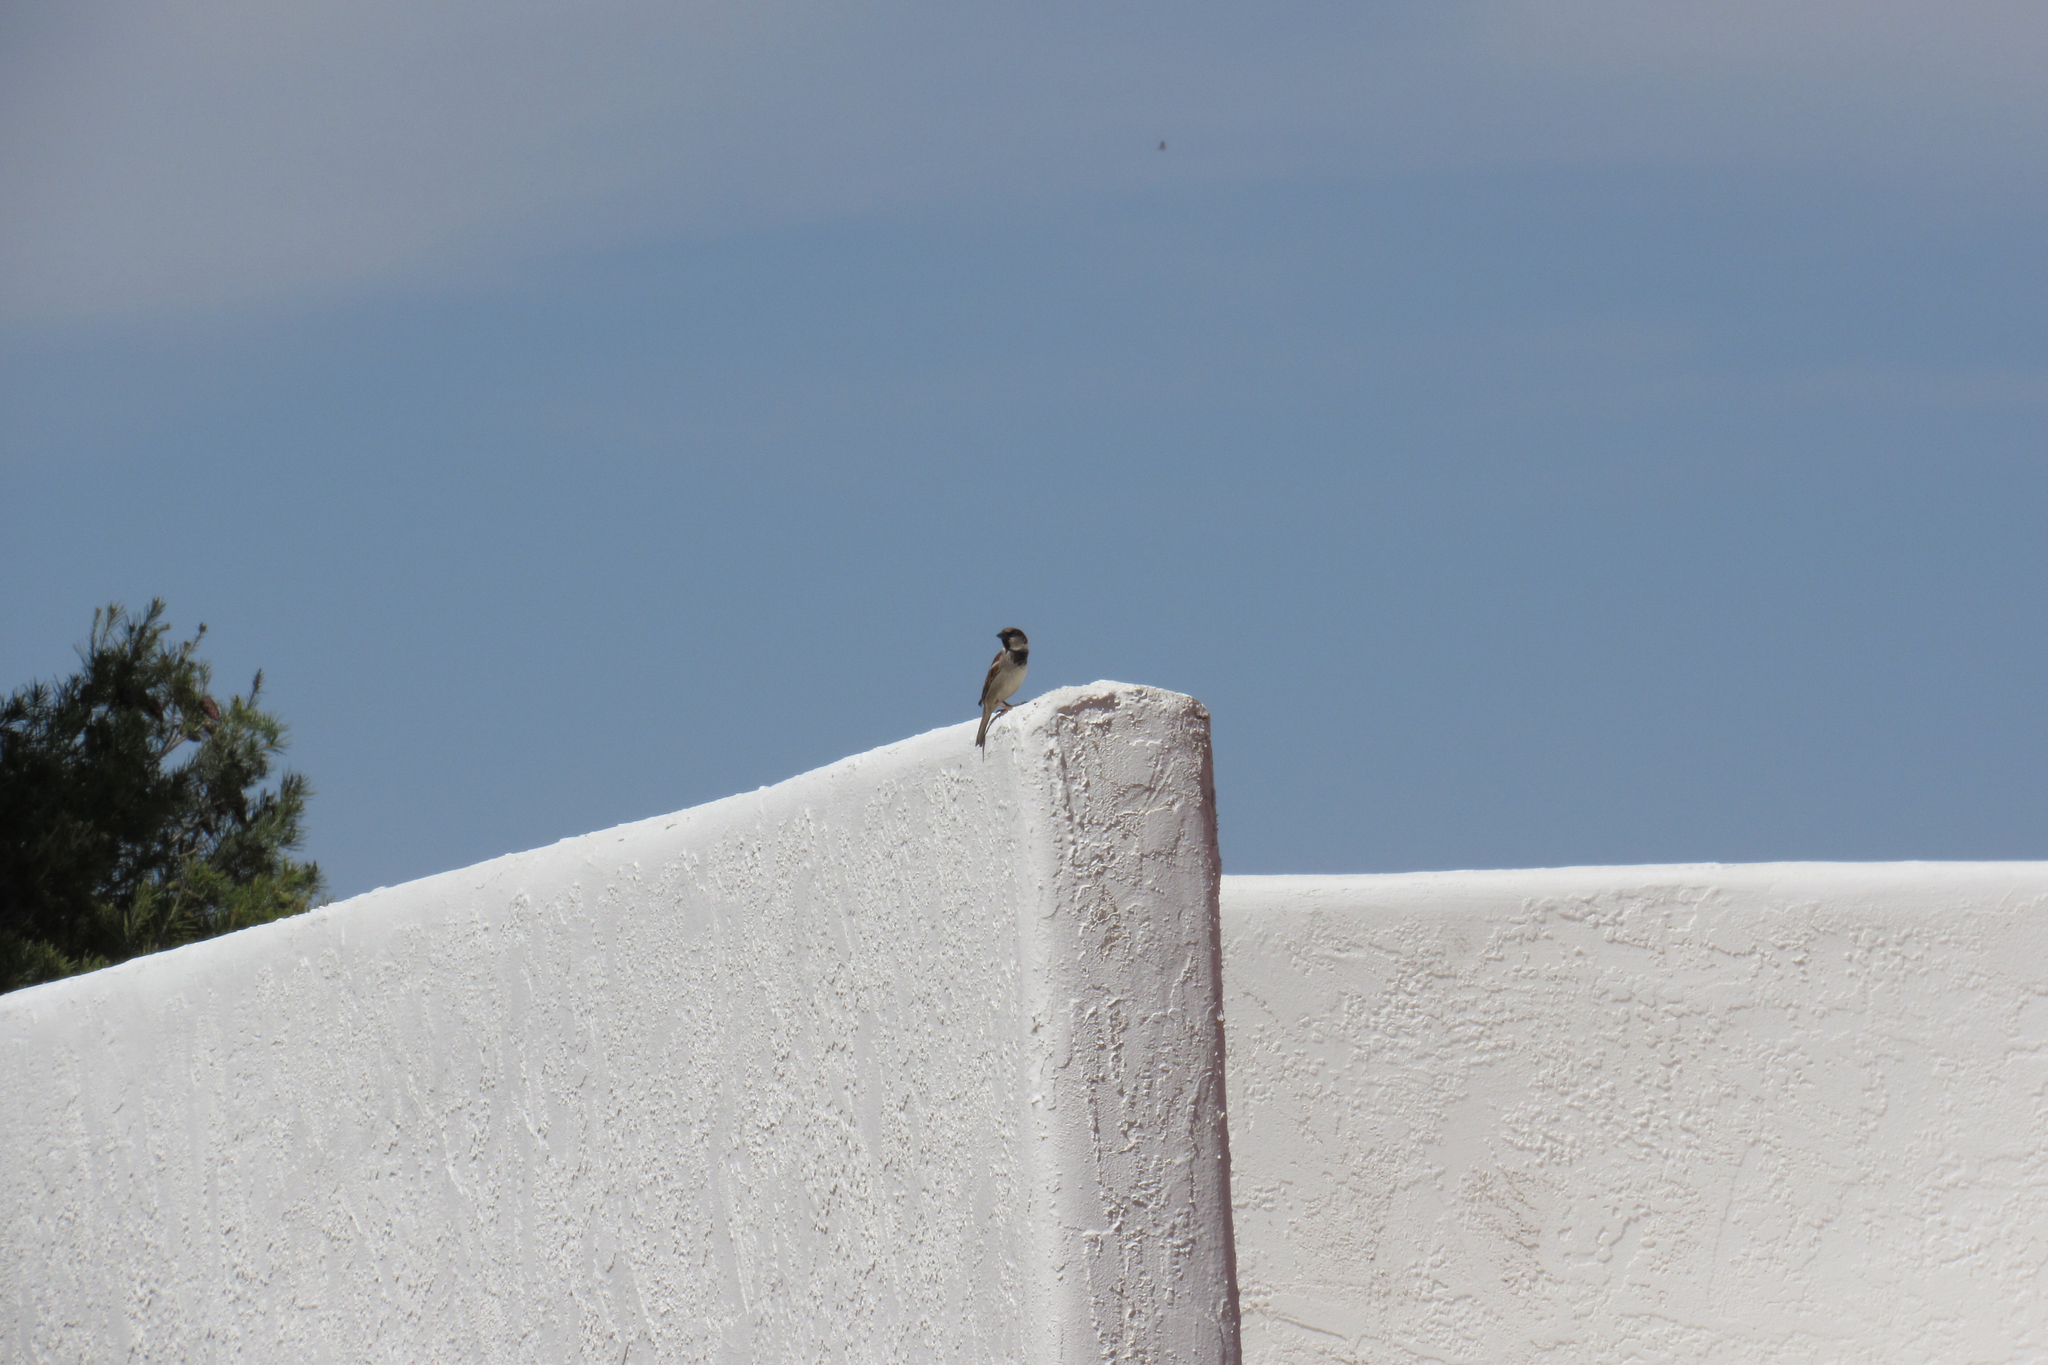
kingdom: Animalia
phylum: Chordata
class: Aves
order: Passeriformes
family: Passeridae
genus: Passer
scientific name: Passer domesticus
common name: House sparrow
